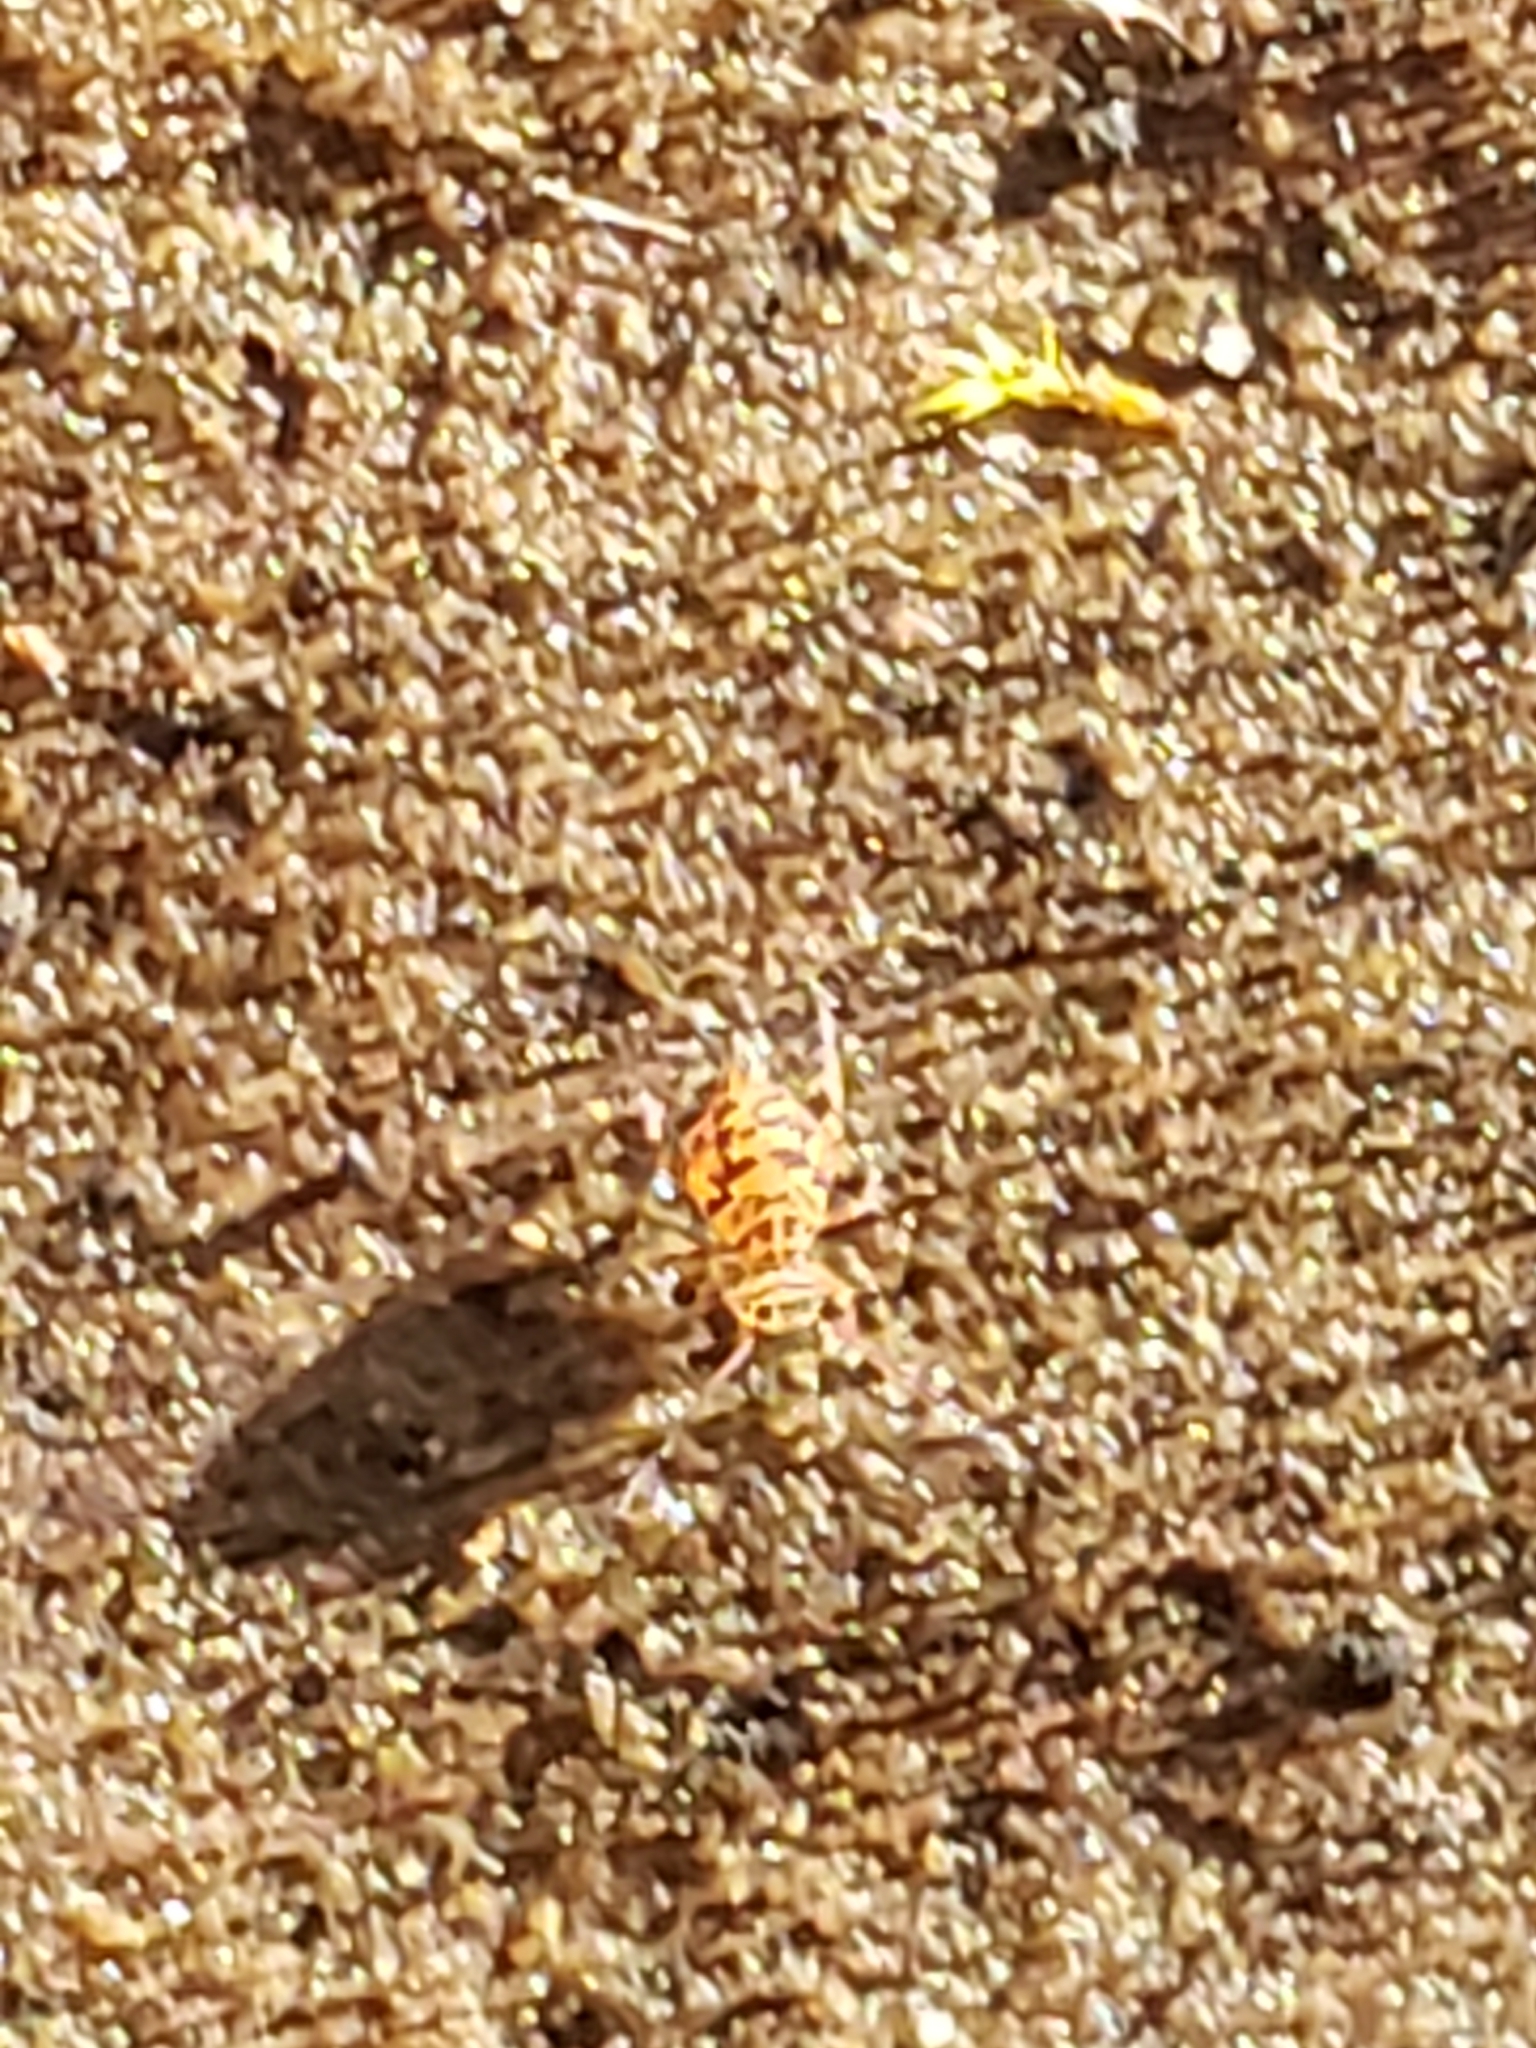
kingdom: Animalia
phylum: Arthropoda
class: Collembola
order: Symphypleona
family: Dicyrtomidae
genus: Ptenothrix
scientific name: Ptenothrix marmorata
